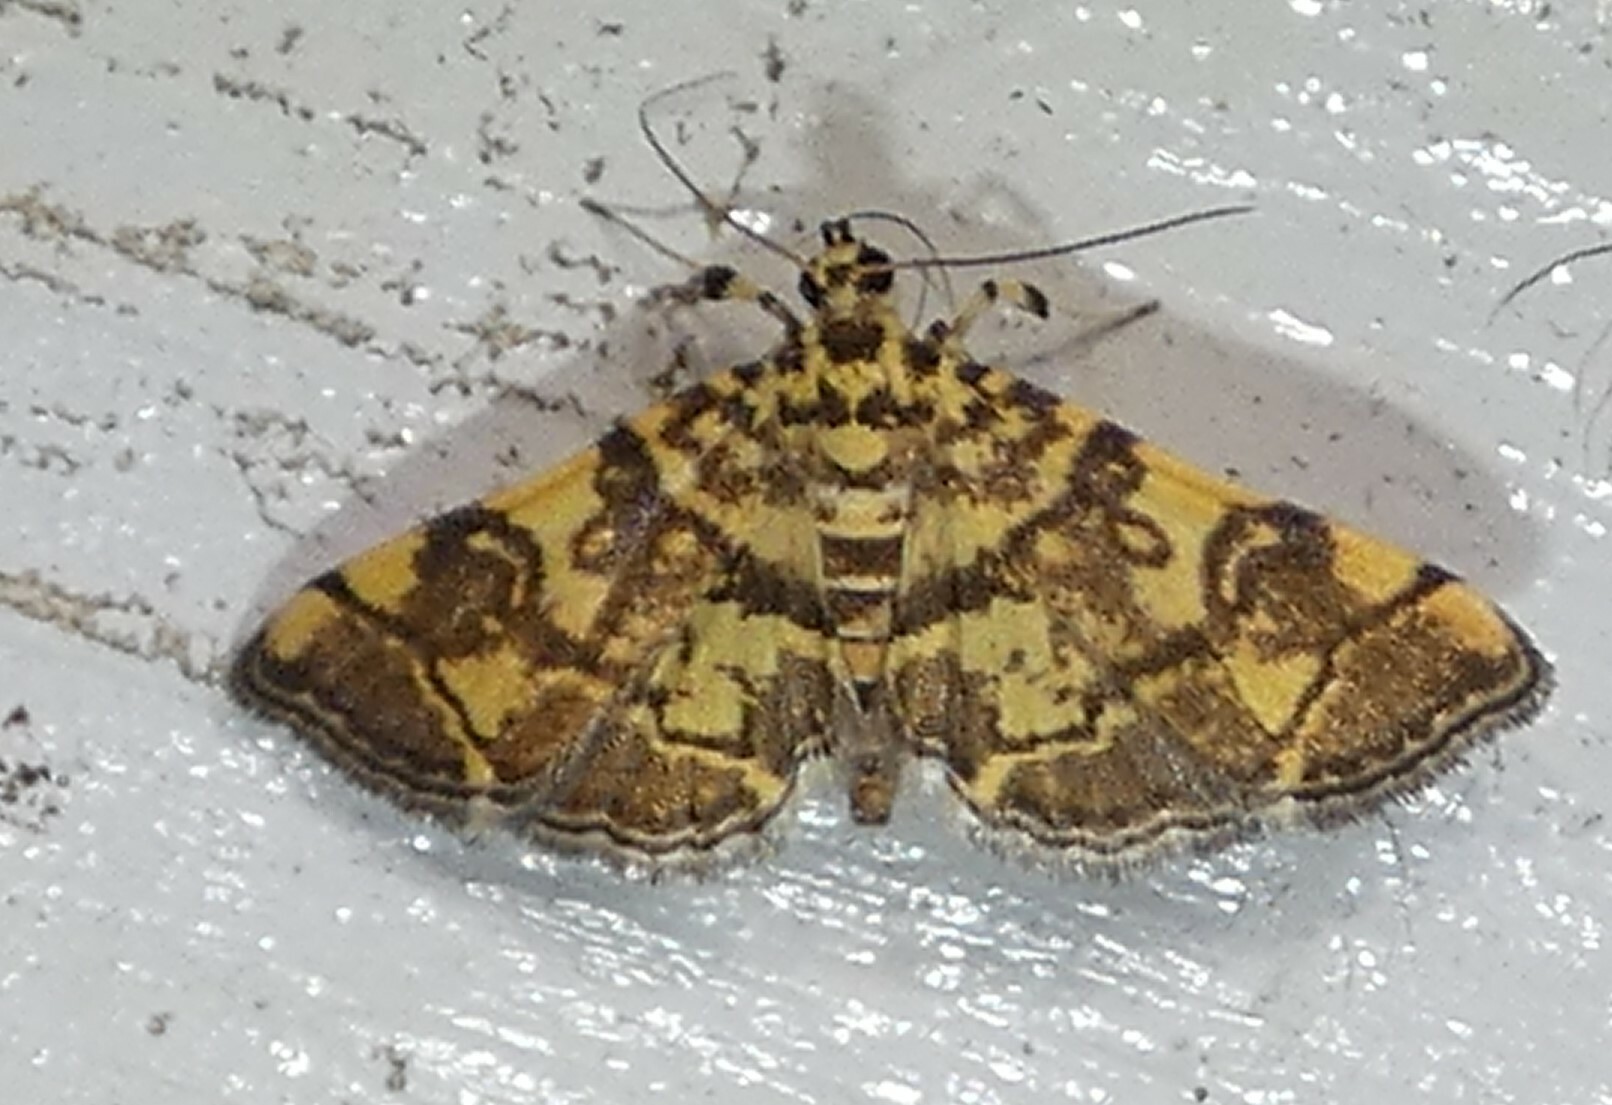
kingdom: Animalia
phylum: Arthropoda
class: Insecta
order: Lepidoptera
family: Crambidae
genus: Apogeshna
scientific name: Apogeshna stenialis
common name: Checkered apogeshna moth
